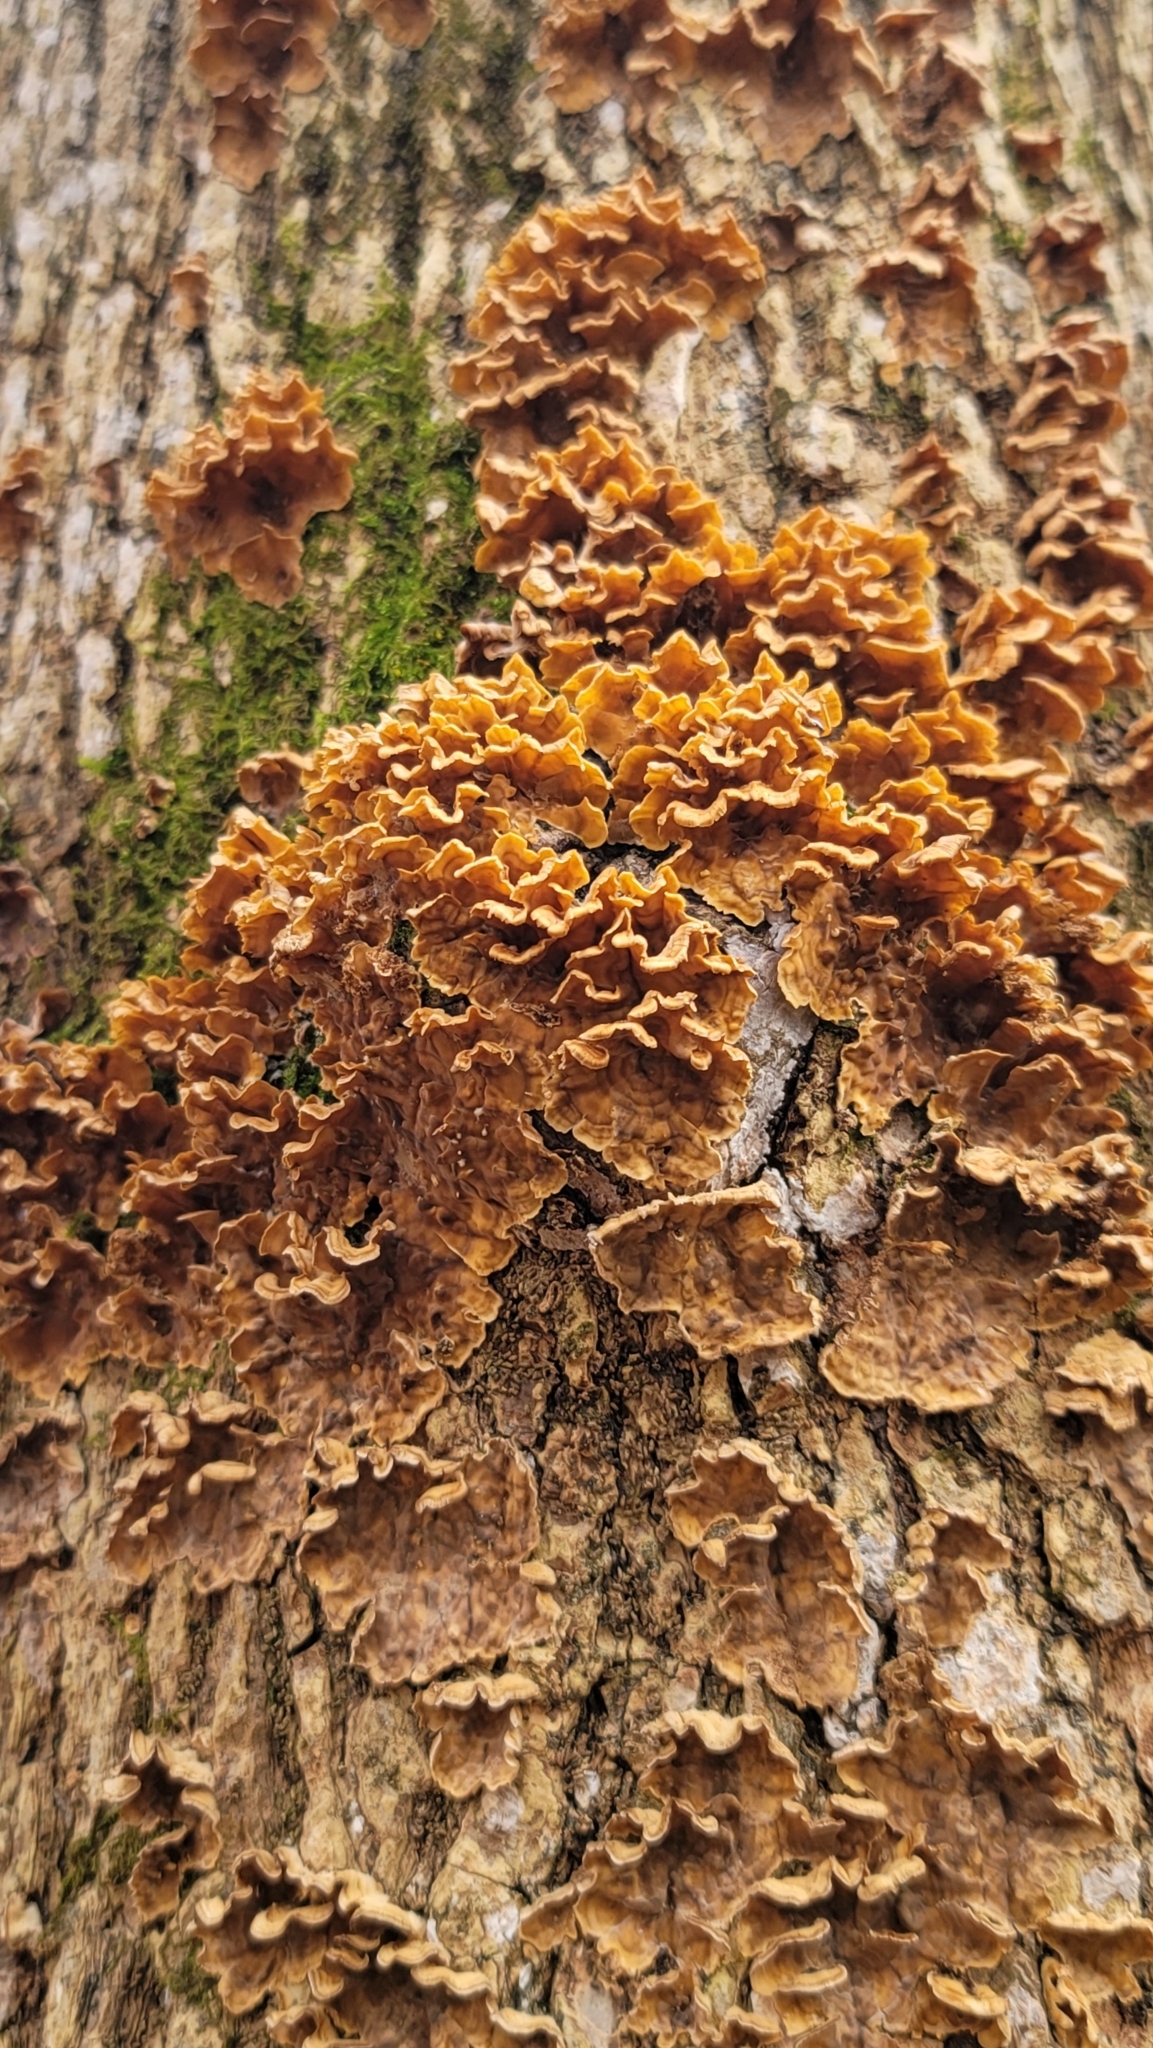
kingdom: Fungi
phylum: Basidiomycota
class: Agaricomycetes
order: Russulales
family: Stereaceae
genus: Stereum
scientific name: Stereum complicatum
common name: Crowded parchment
